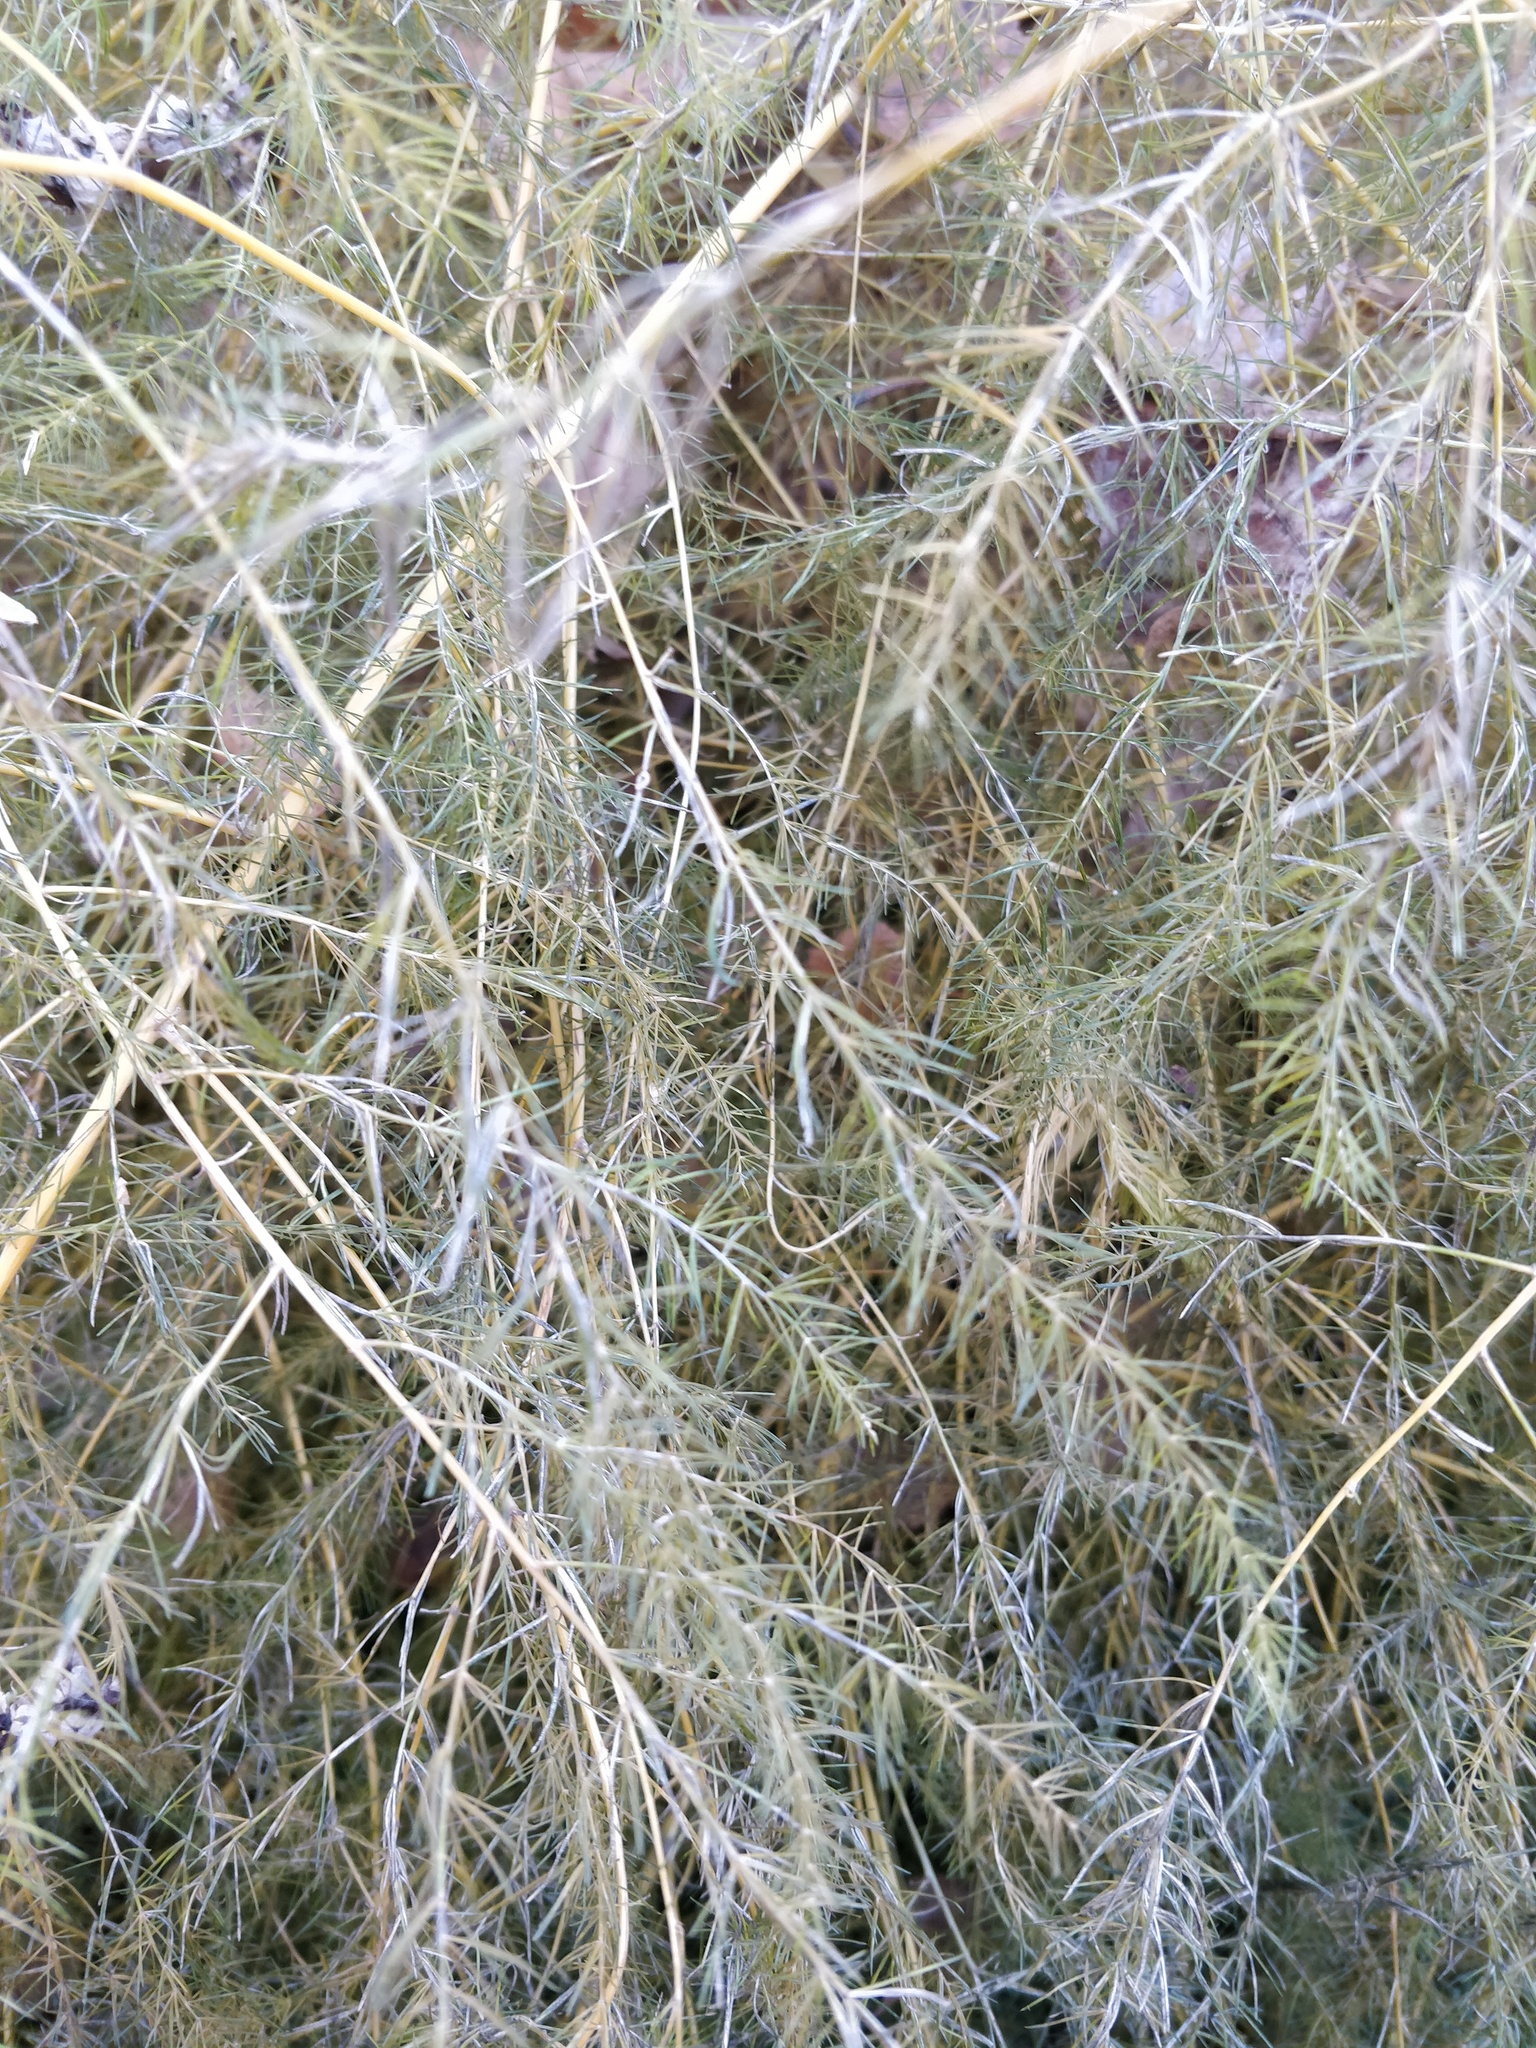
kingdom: Plantae
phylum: Tracheophyta
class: Liliopsida
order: Asparagales
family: Asparagaceae
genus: Asparagus
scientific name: Asparagus officinalis
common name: Garden asparagus
